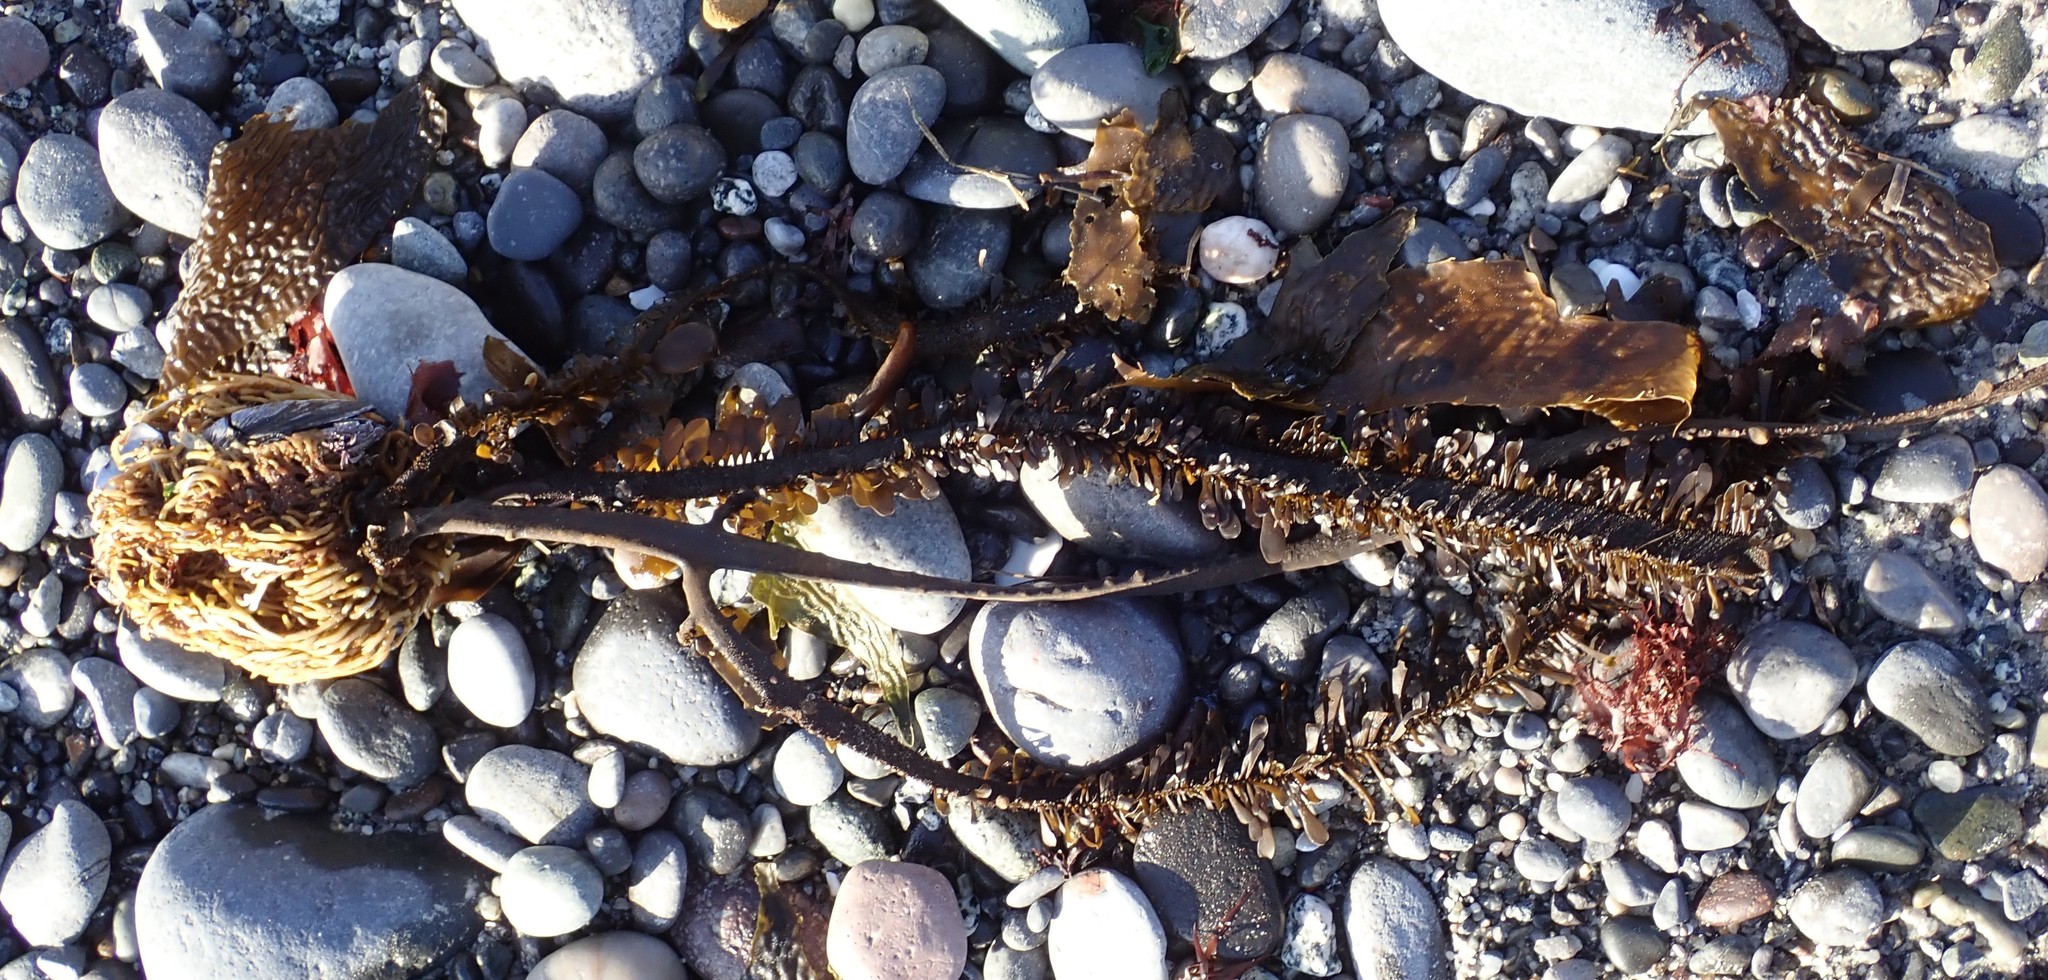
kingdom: Chromista
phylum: Ochrophyta
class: Phaeophyceae
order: Laminariales
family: Lessoniaceae
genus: Egregia
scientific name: Egregia menziesii
